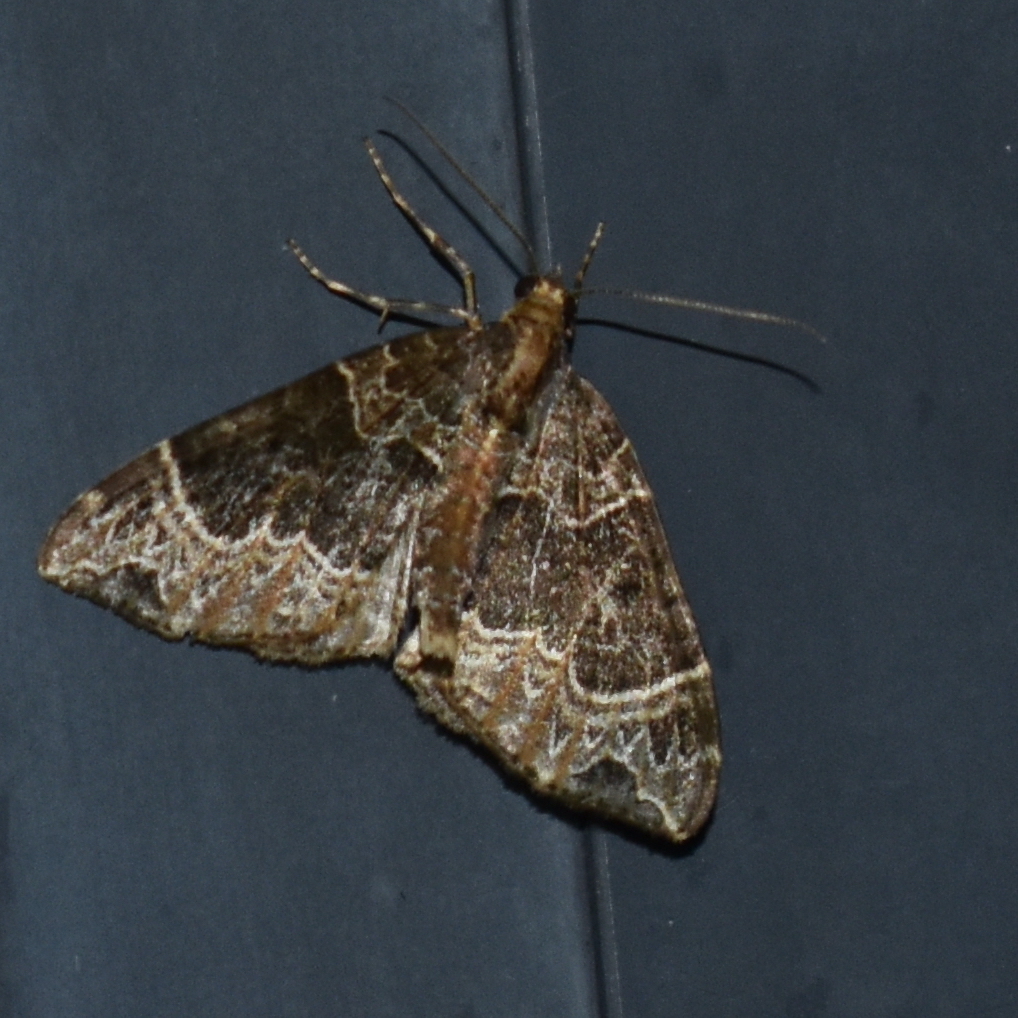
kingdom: Animalia
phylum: Arthropoda
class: Insecta
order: Lepidoptera
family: Geometridae
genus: Ecliptopera
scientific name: Ecliptopera silaceata
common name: Small phoenix
